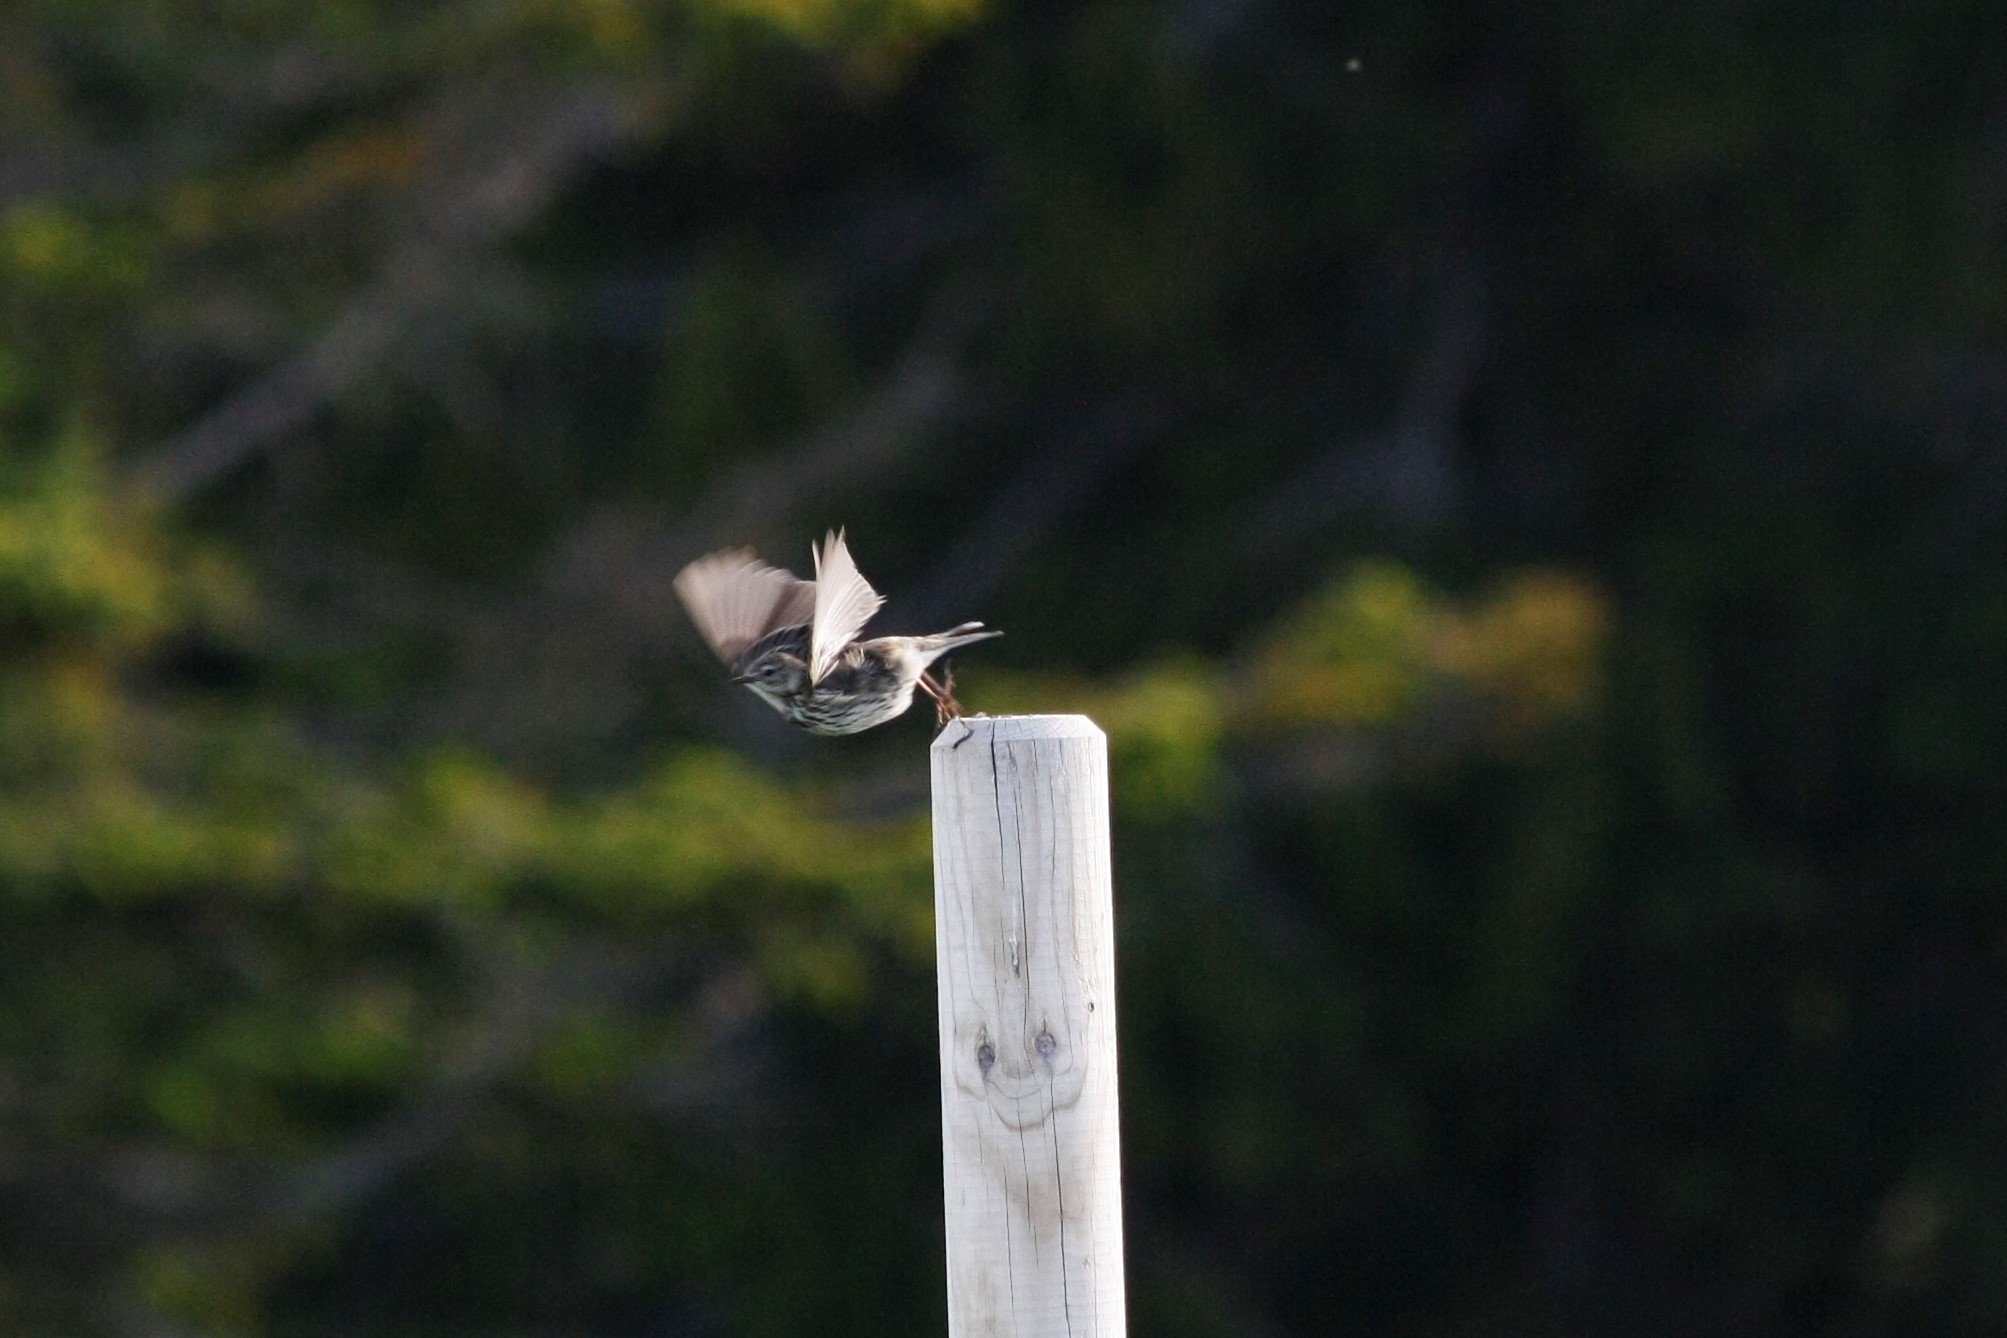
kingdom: Animalia
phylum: Chordata
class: Aves
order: Passeriformes
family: Motacillidae
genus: Anthus
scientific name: Anthus pratensis
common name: Meadow pipit
